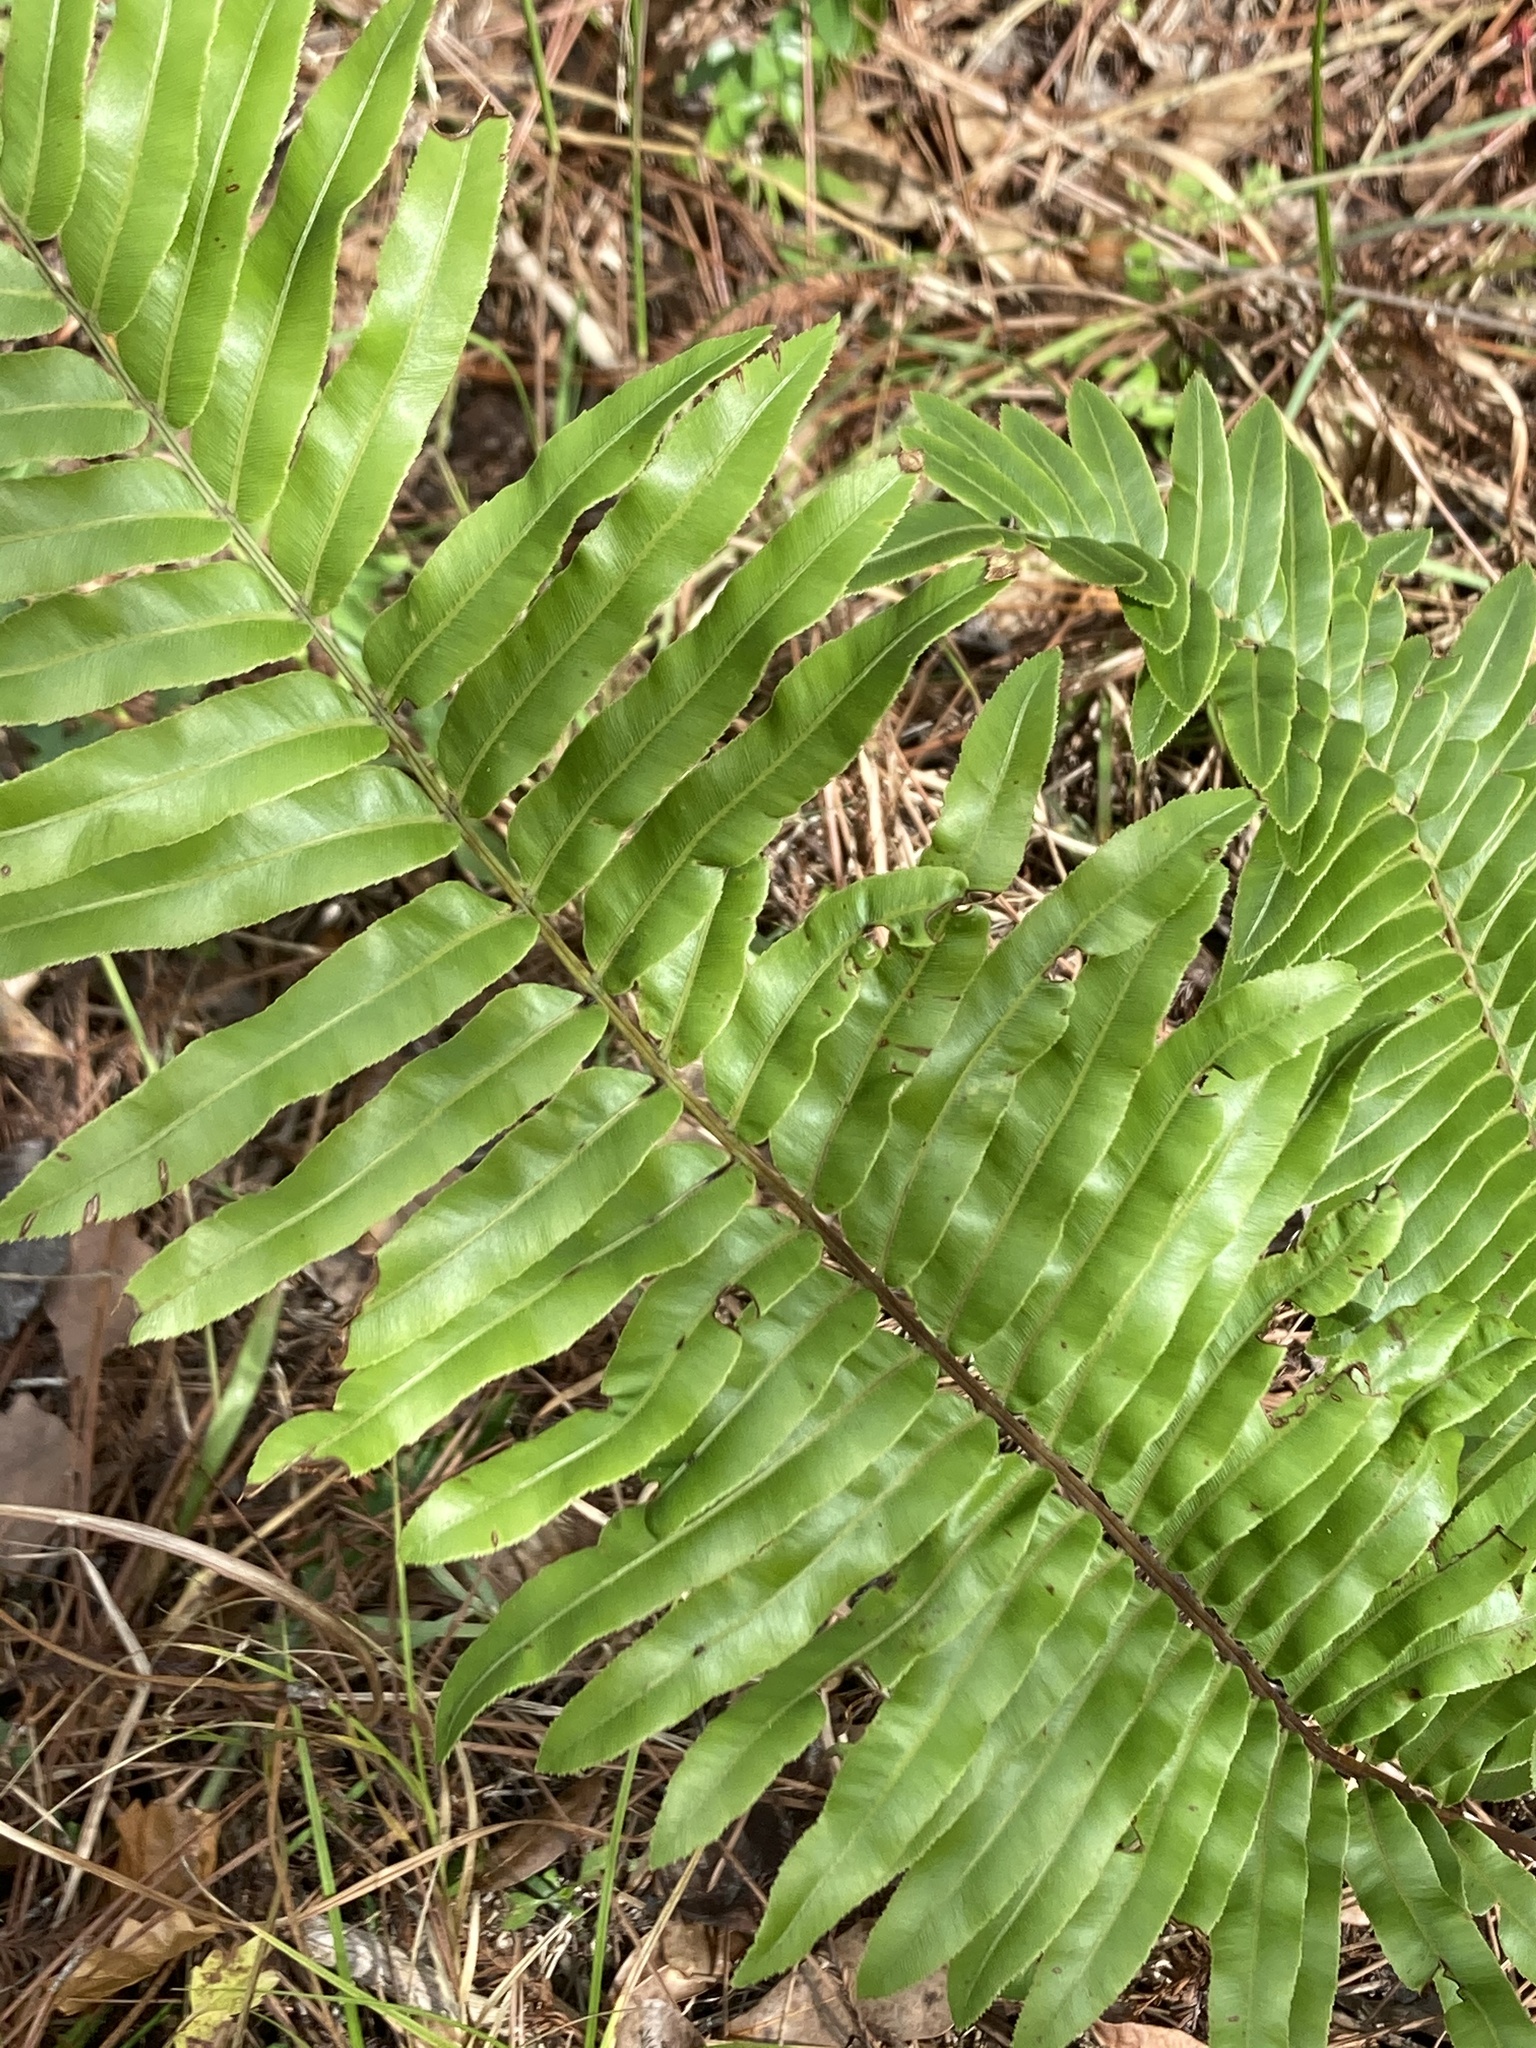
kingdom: Plantae
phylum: Tracheophyta
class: Polypodiopsida
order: Polypodiales
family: Blechnaceae
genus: Telmatoblechnum
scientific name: Telmatoblechnum serrulatum
